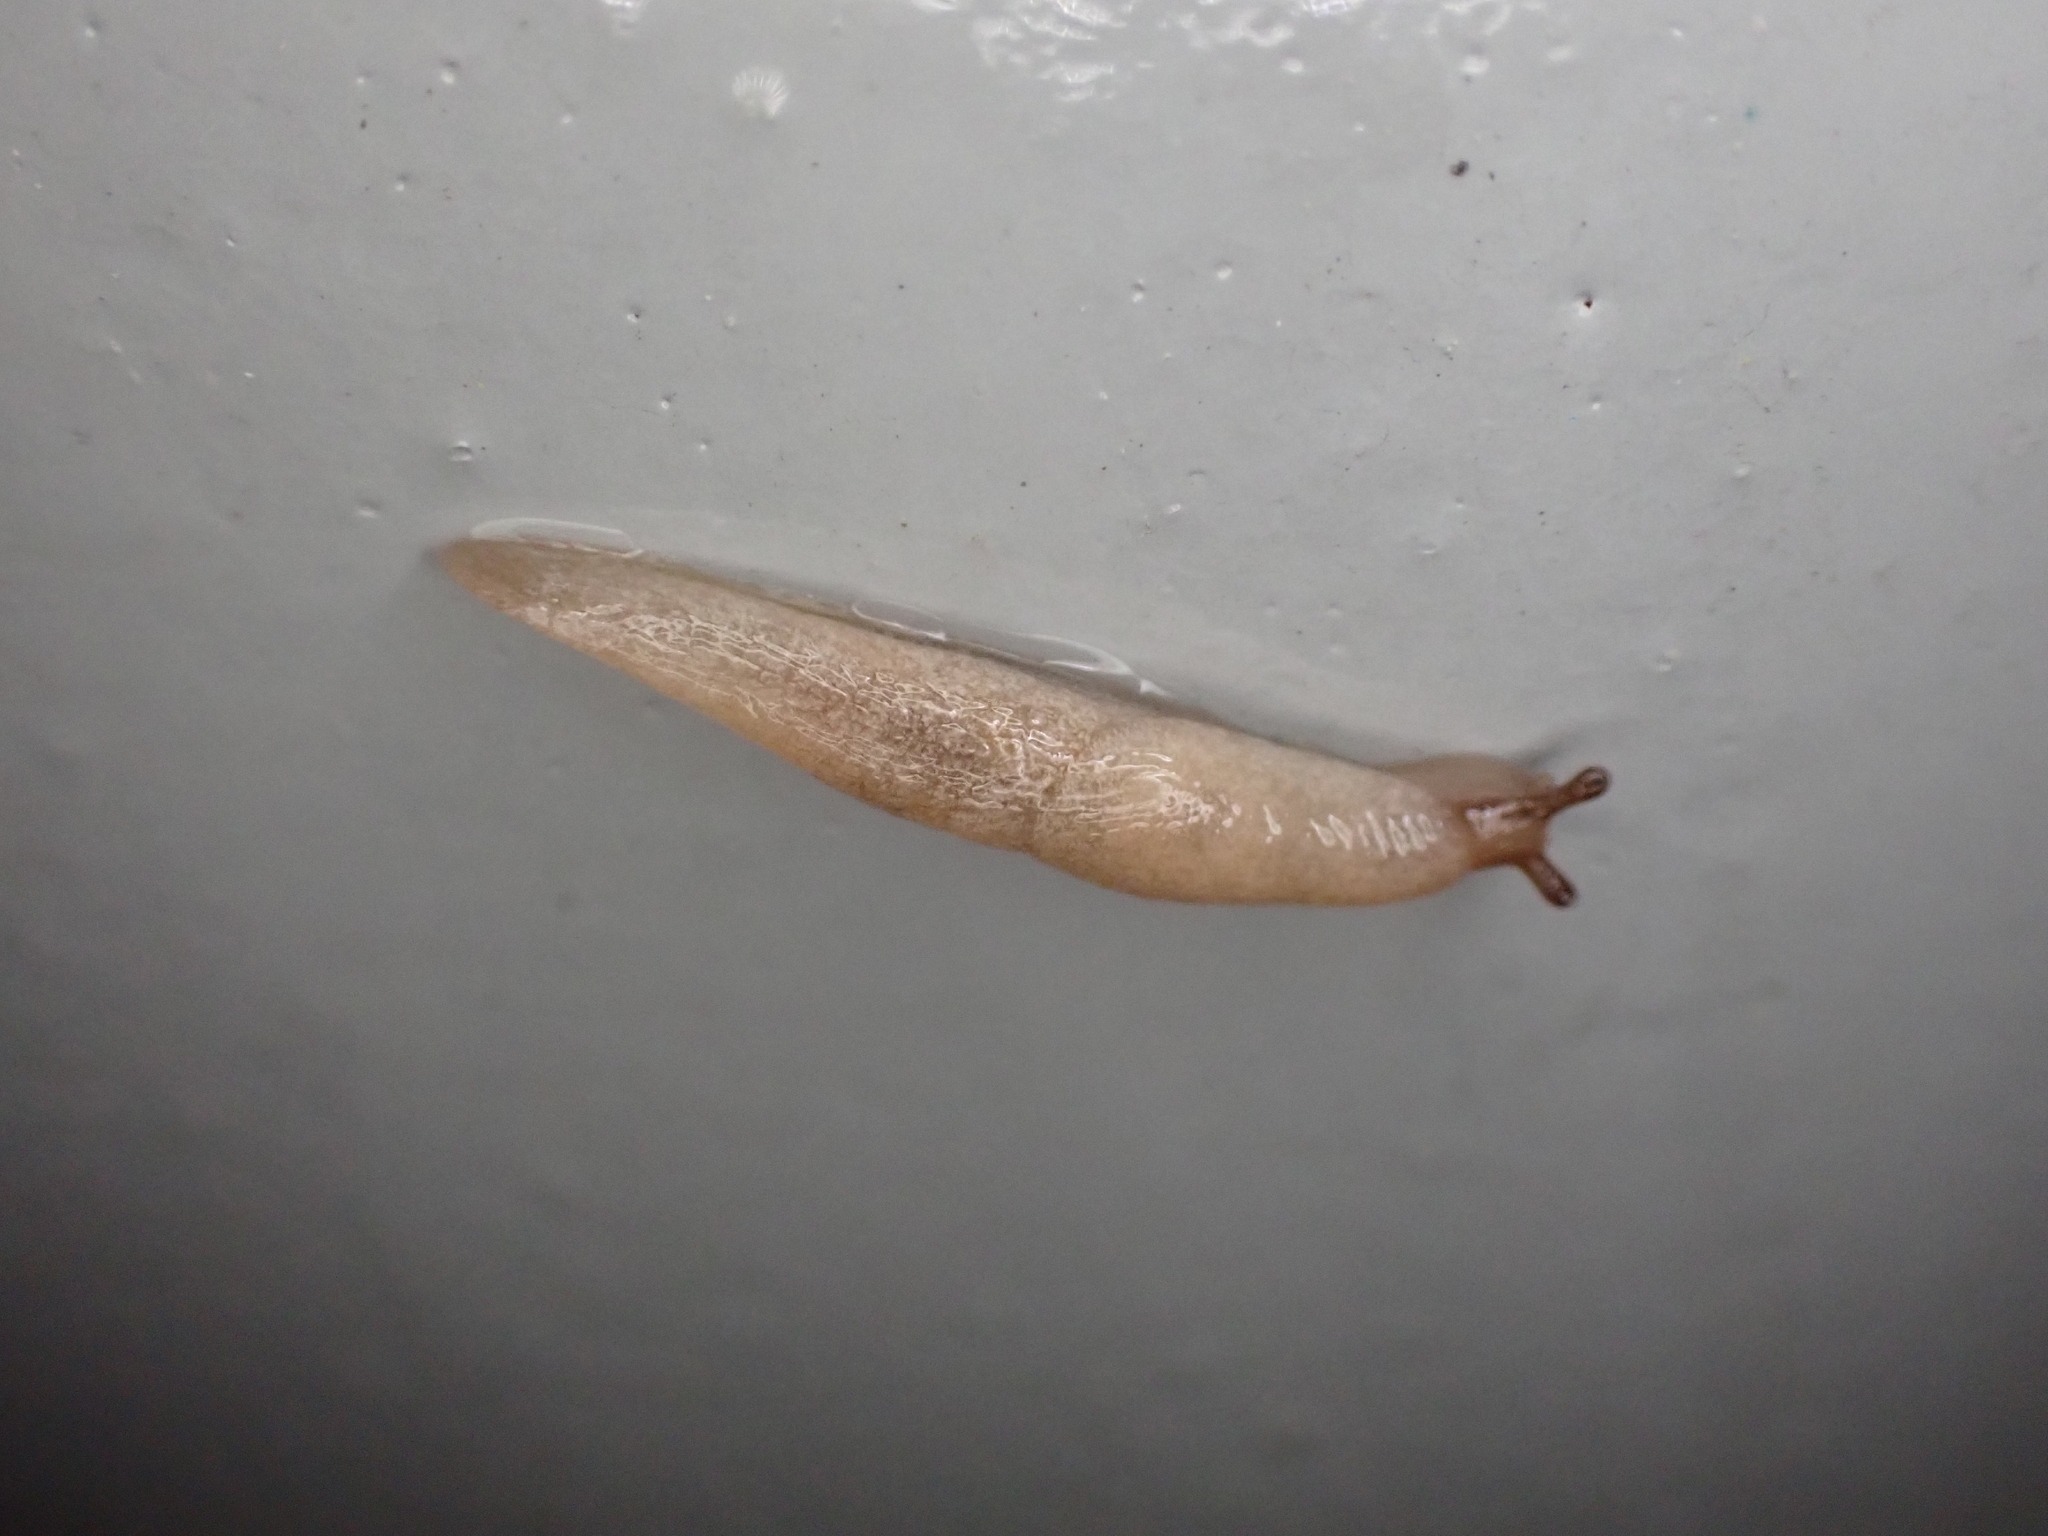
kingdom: Animalia
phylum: Mollusca
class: Gastropoda
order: Stylommatophora
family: Agriolimacidae
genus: Deroceras
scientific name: Deroceras reticulatum
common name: Gray field slug
